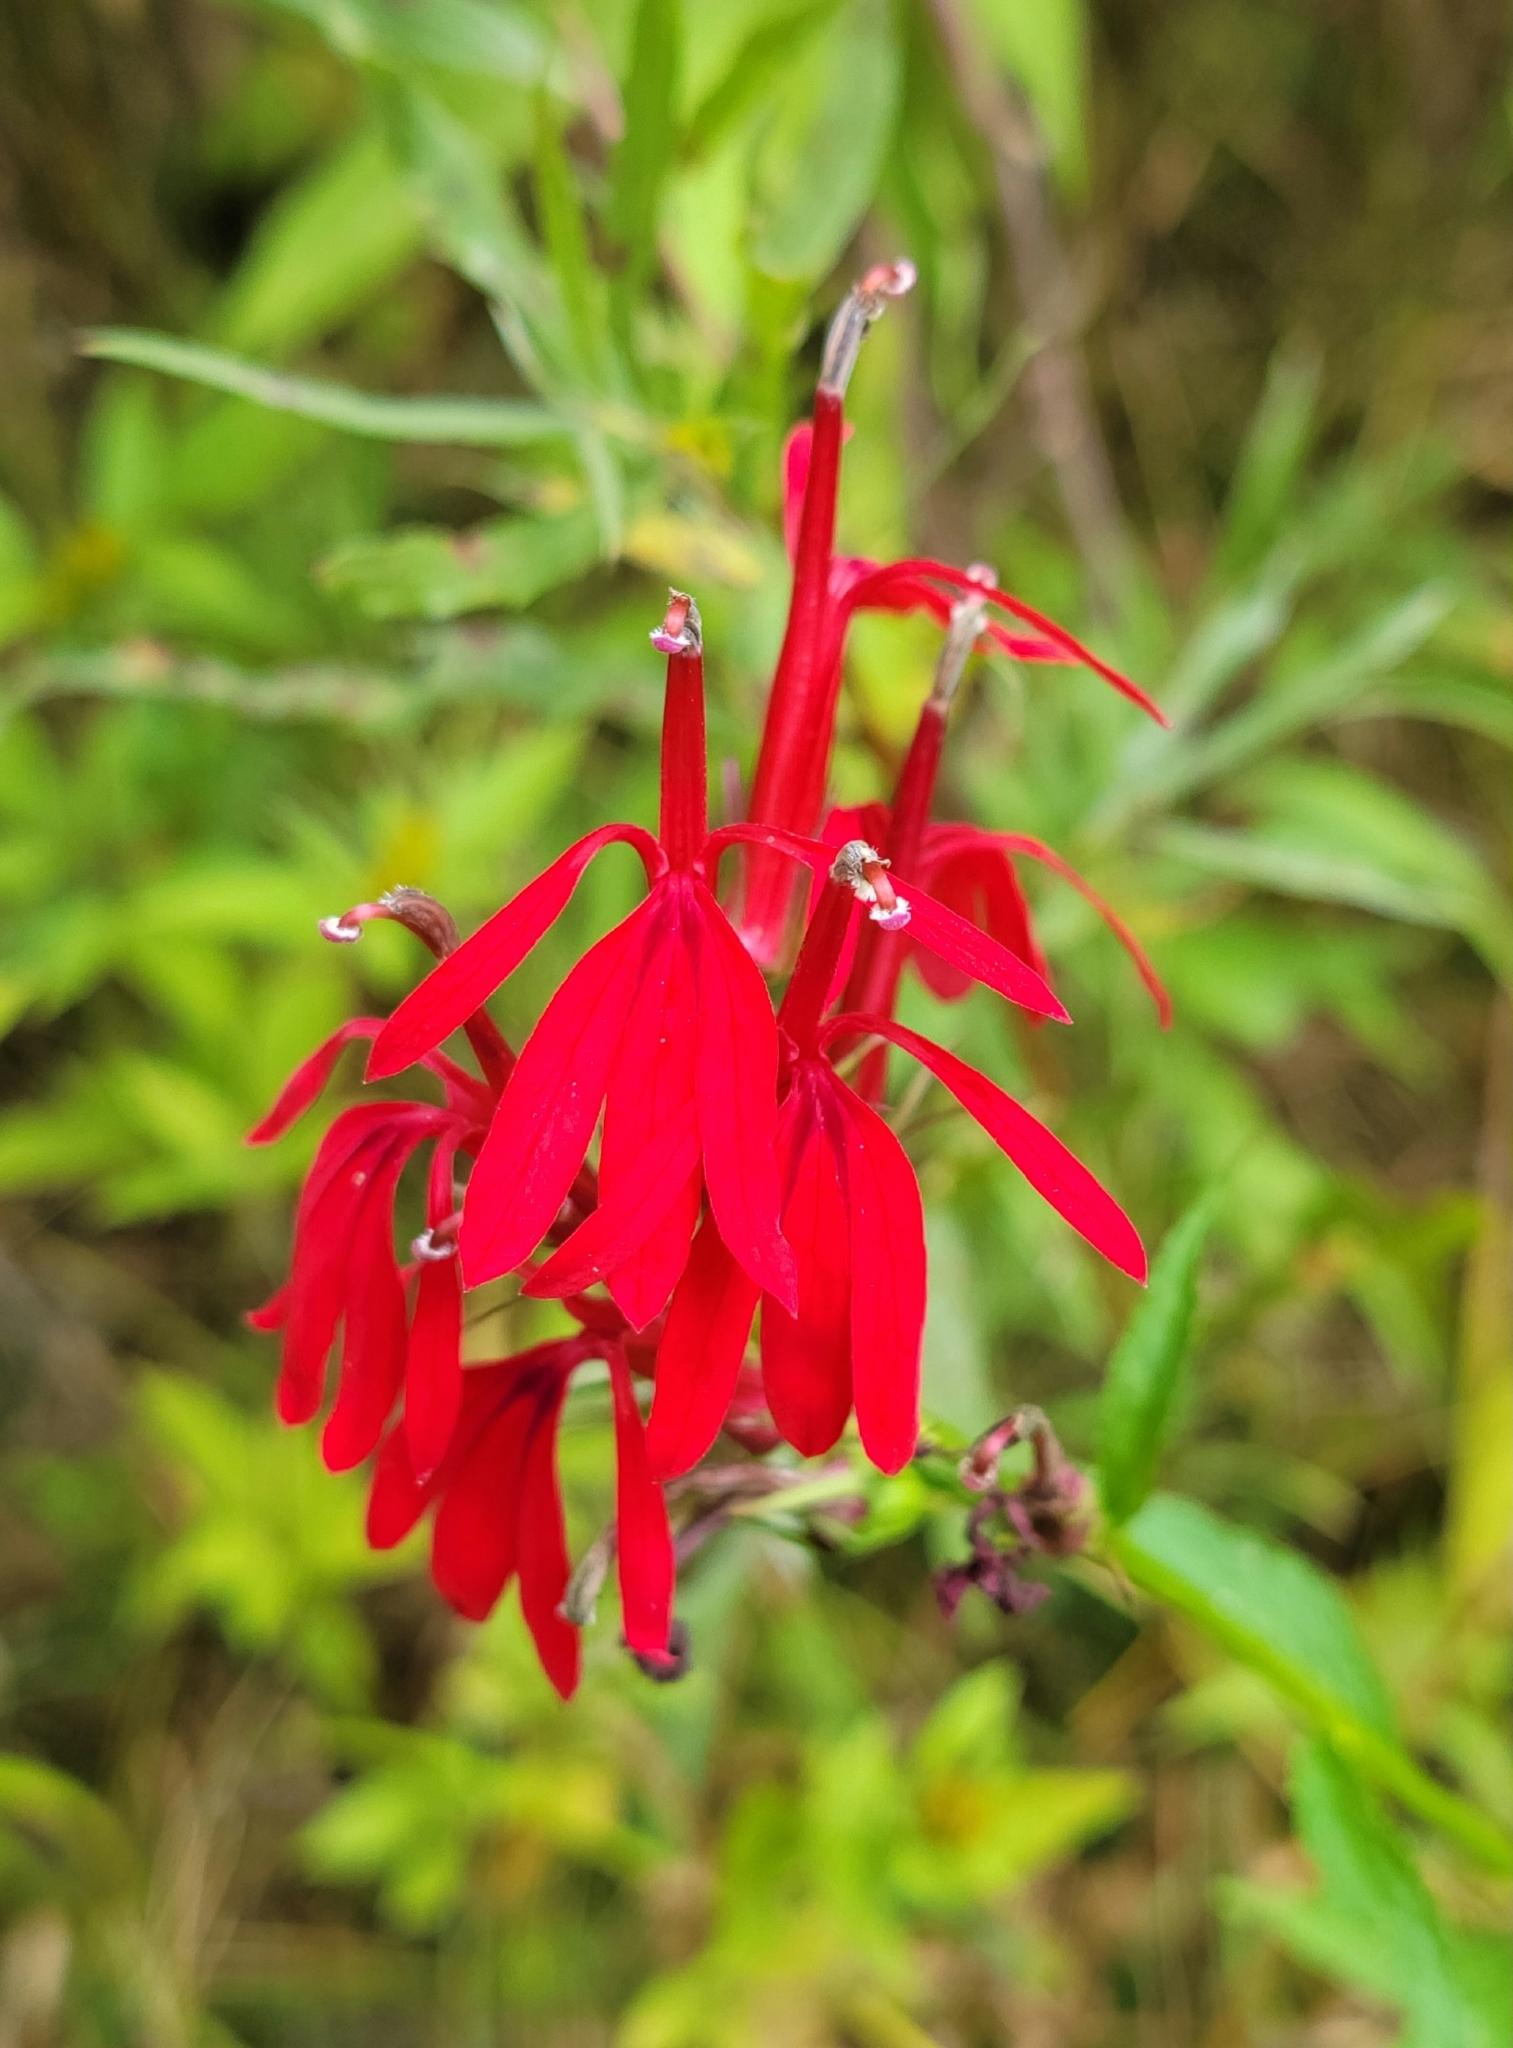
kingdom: Plantae
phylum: Tracheophyta
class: Magnoliopsida
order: Asterales
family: Campanulaceae
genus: Lobelia
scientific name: Lobelia cardinalis
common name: Cardinal flower
